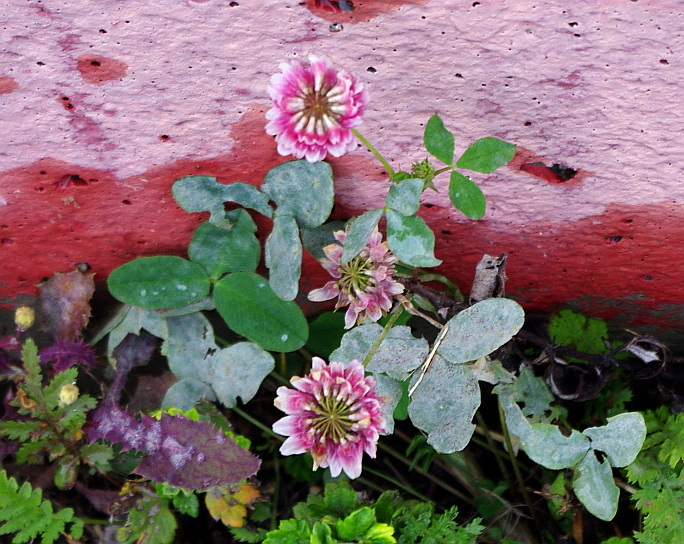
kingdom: Plantae
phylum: Tracheophyta
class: Magnoliopsida
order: Fabales
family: Fabaceae
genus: Trifolium
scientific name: Trifolium hybridum
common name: Alsike clover
